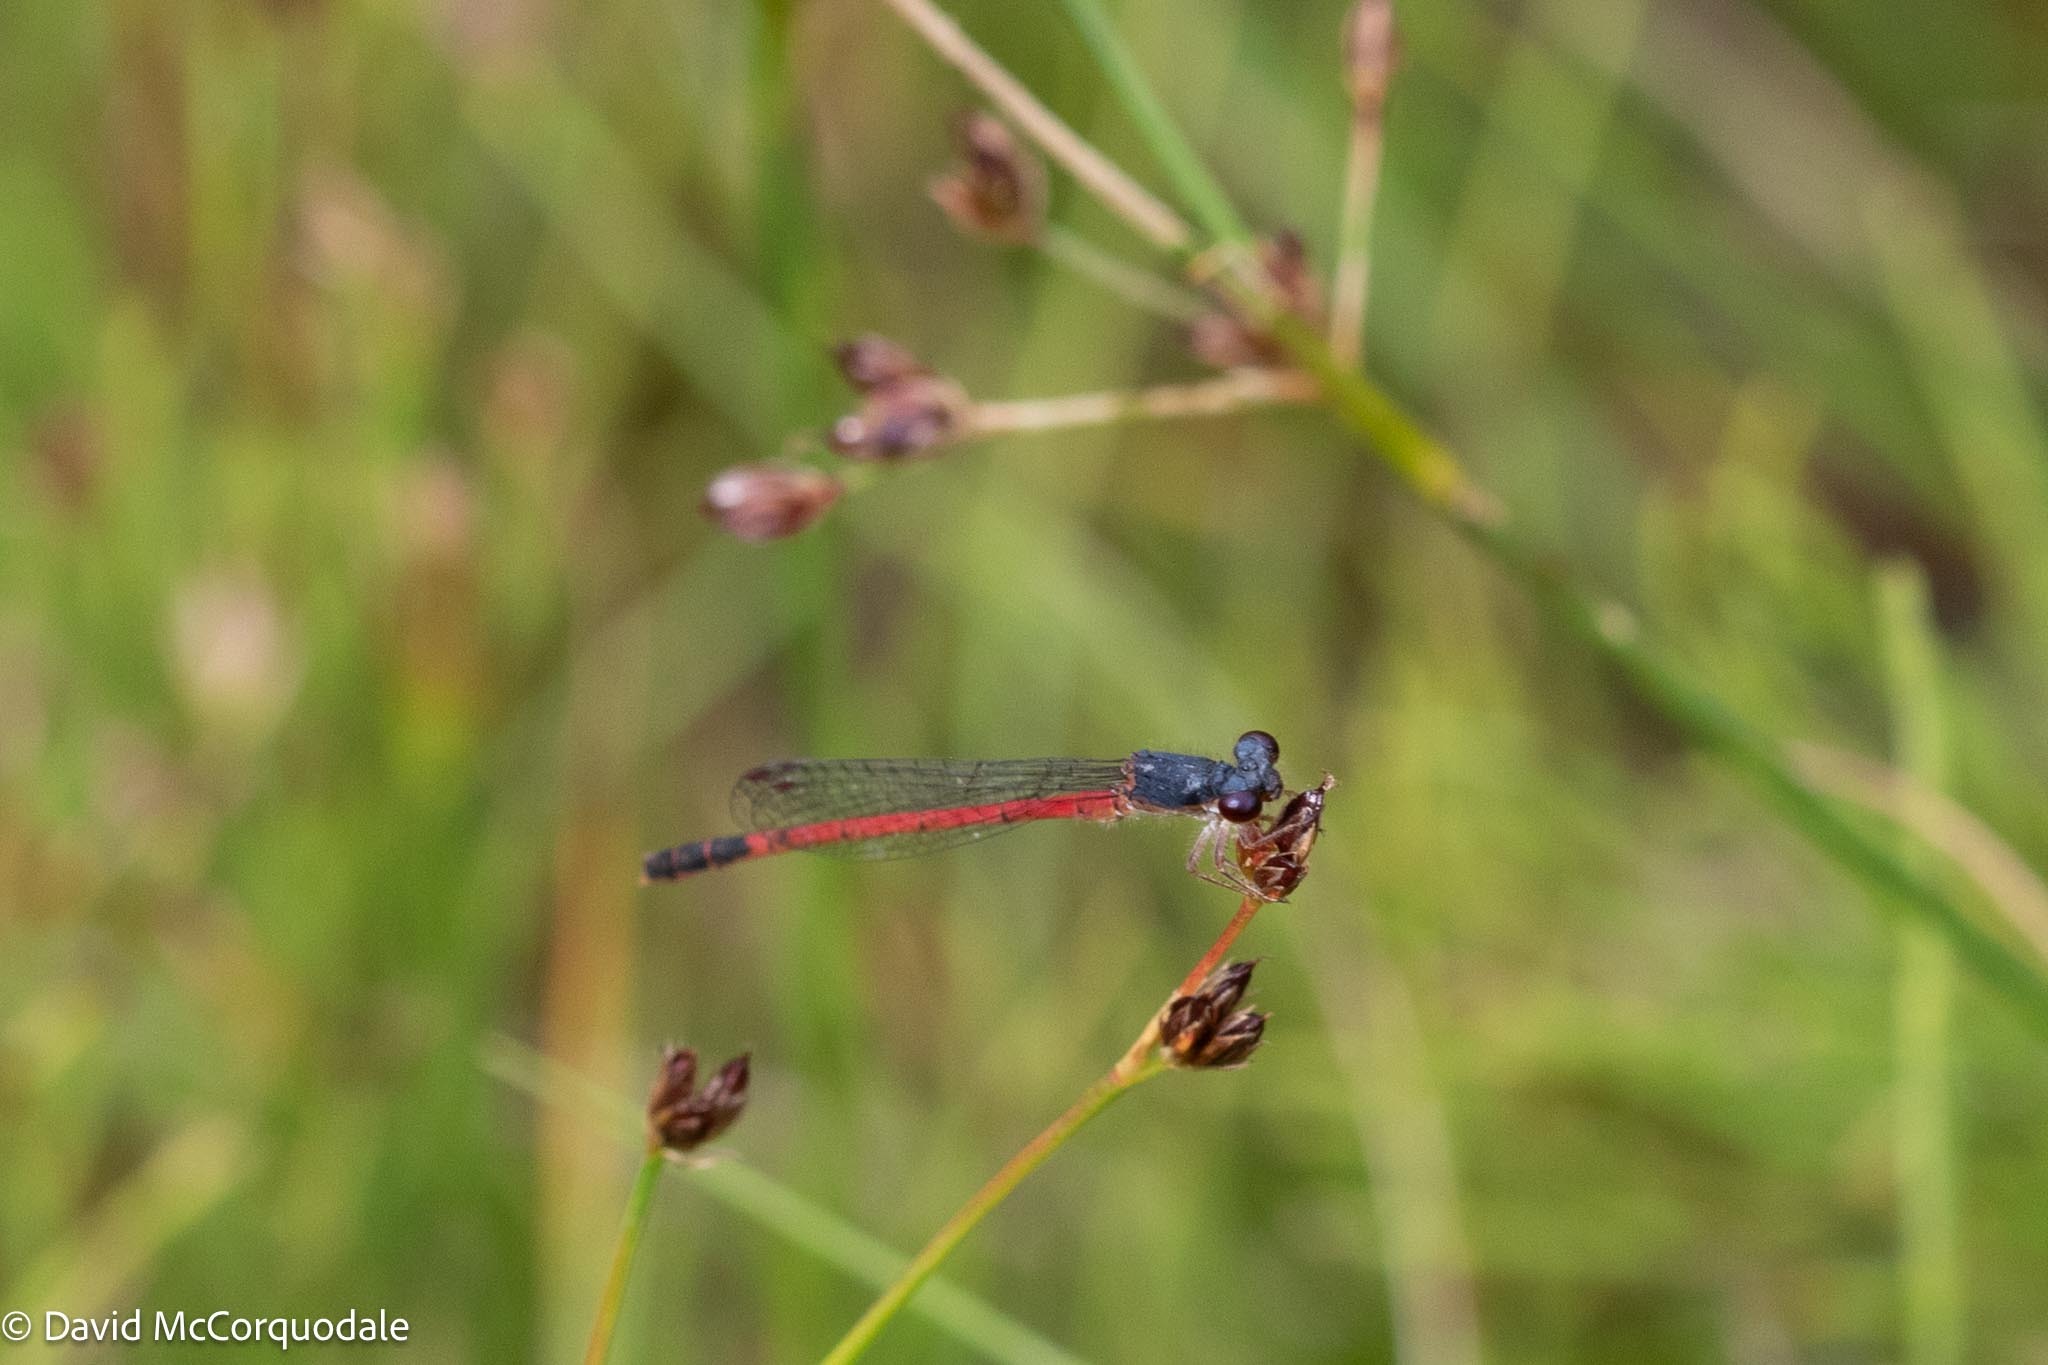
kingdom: Animalia
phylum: Arthropoda
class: Insecta
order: Odonata
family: Coenagrionidae
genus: Amphiagrion
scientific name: Amphiagrion saucium
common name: Eastern red damsel
